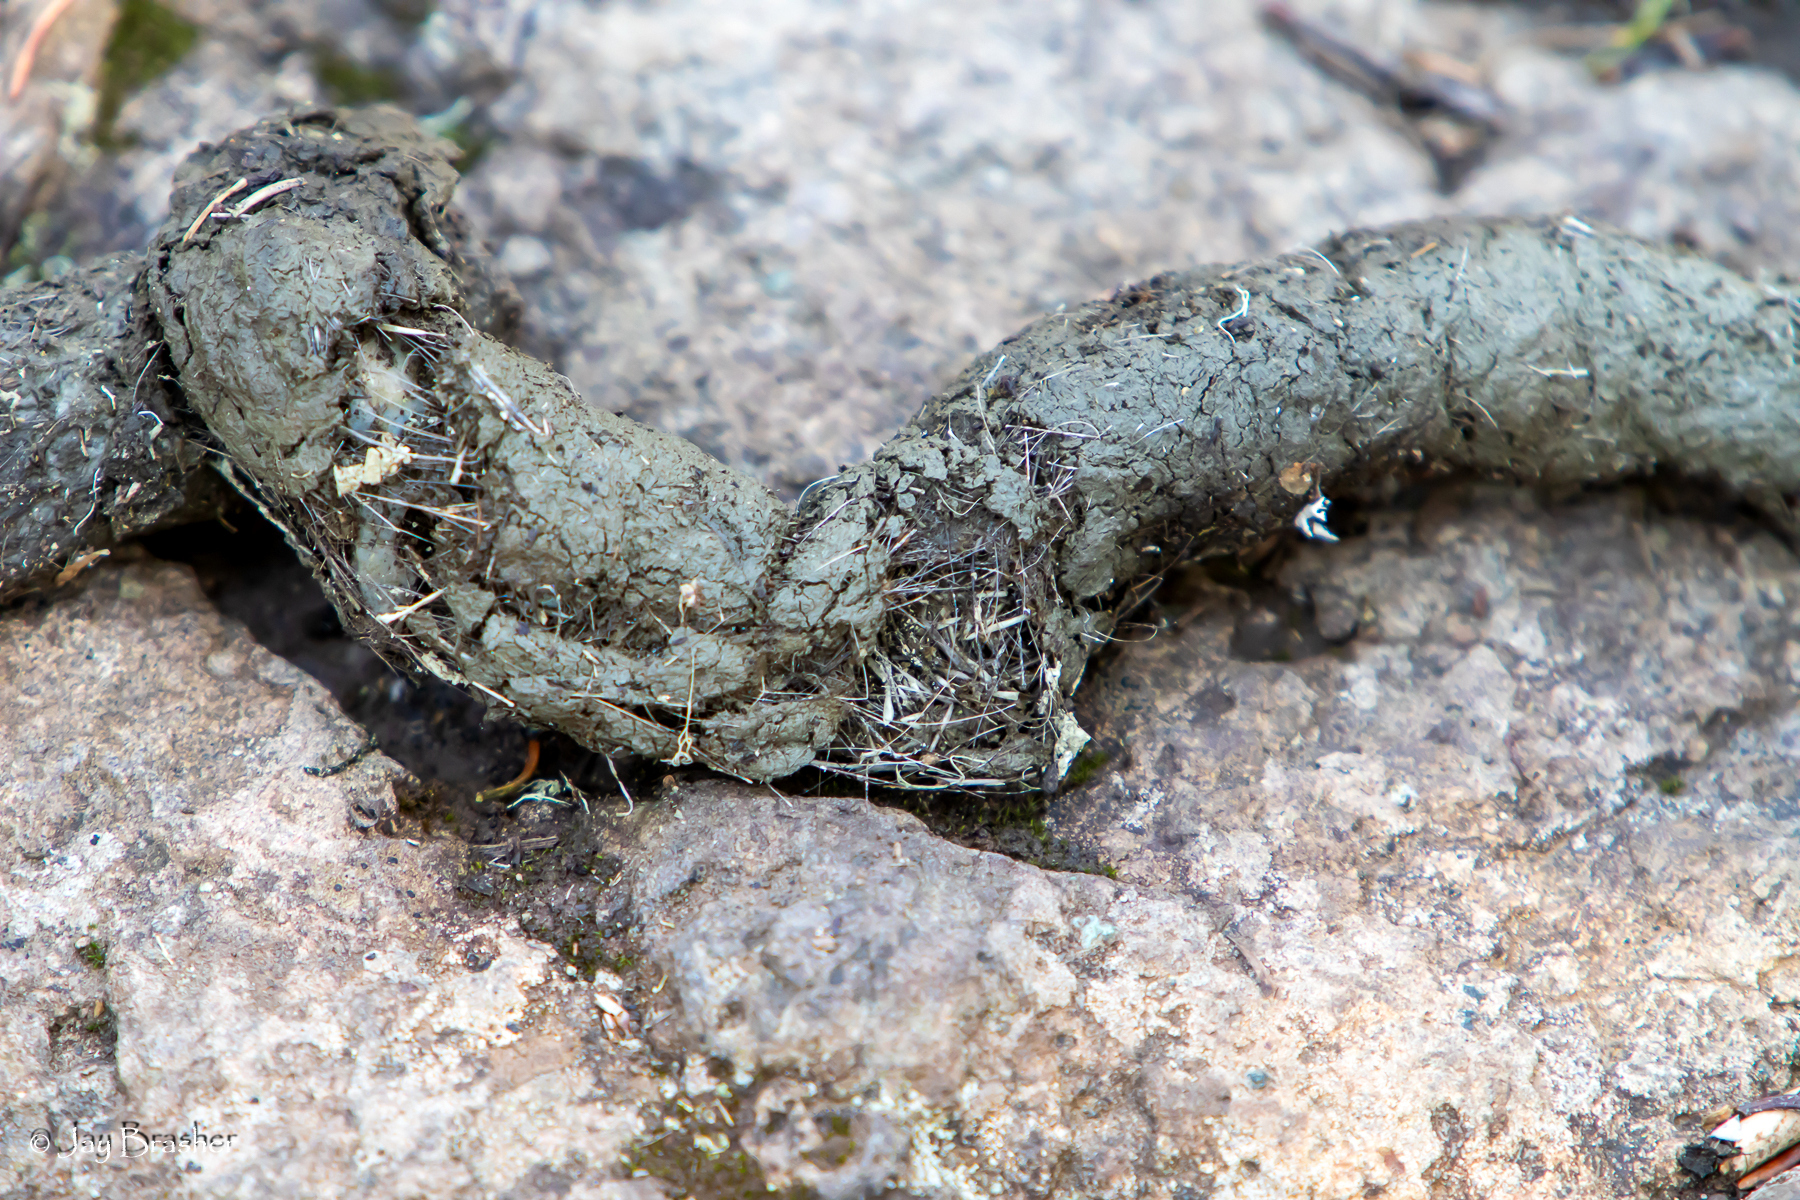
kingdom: Animalia
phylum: Chordata
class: Mammalia
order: Carnivora
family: Canidae
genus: Canis
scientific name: Canis lupus
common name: Gray wolf
